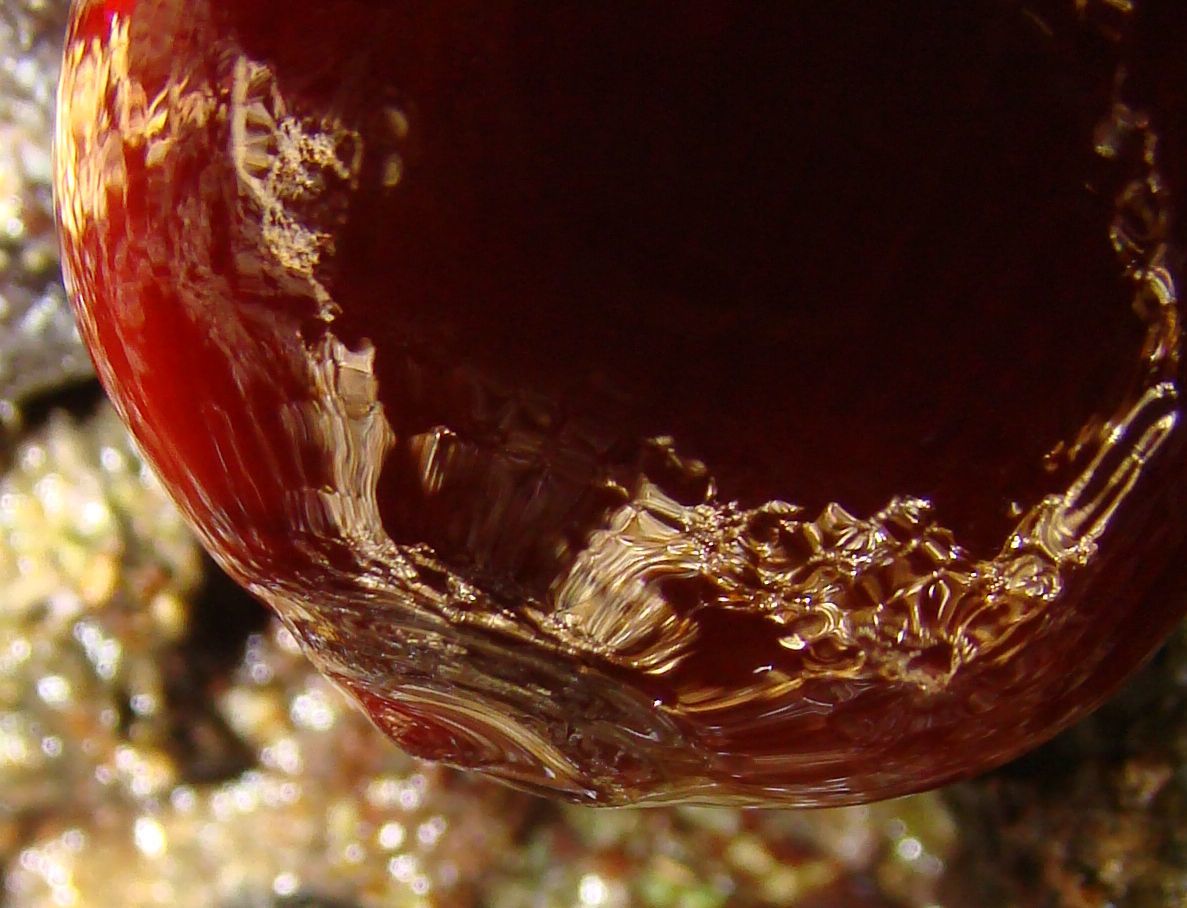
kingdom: Animalia
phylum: Cnidaria
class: Anthozoa
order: Actiniaria
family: Actiniidae
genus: Actinia
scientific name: Actinia mediterranea
